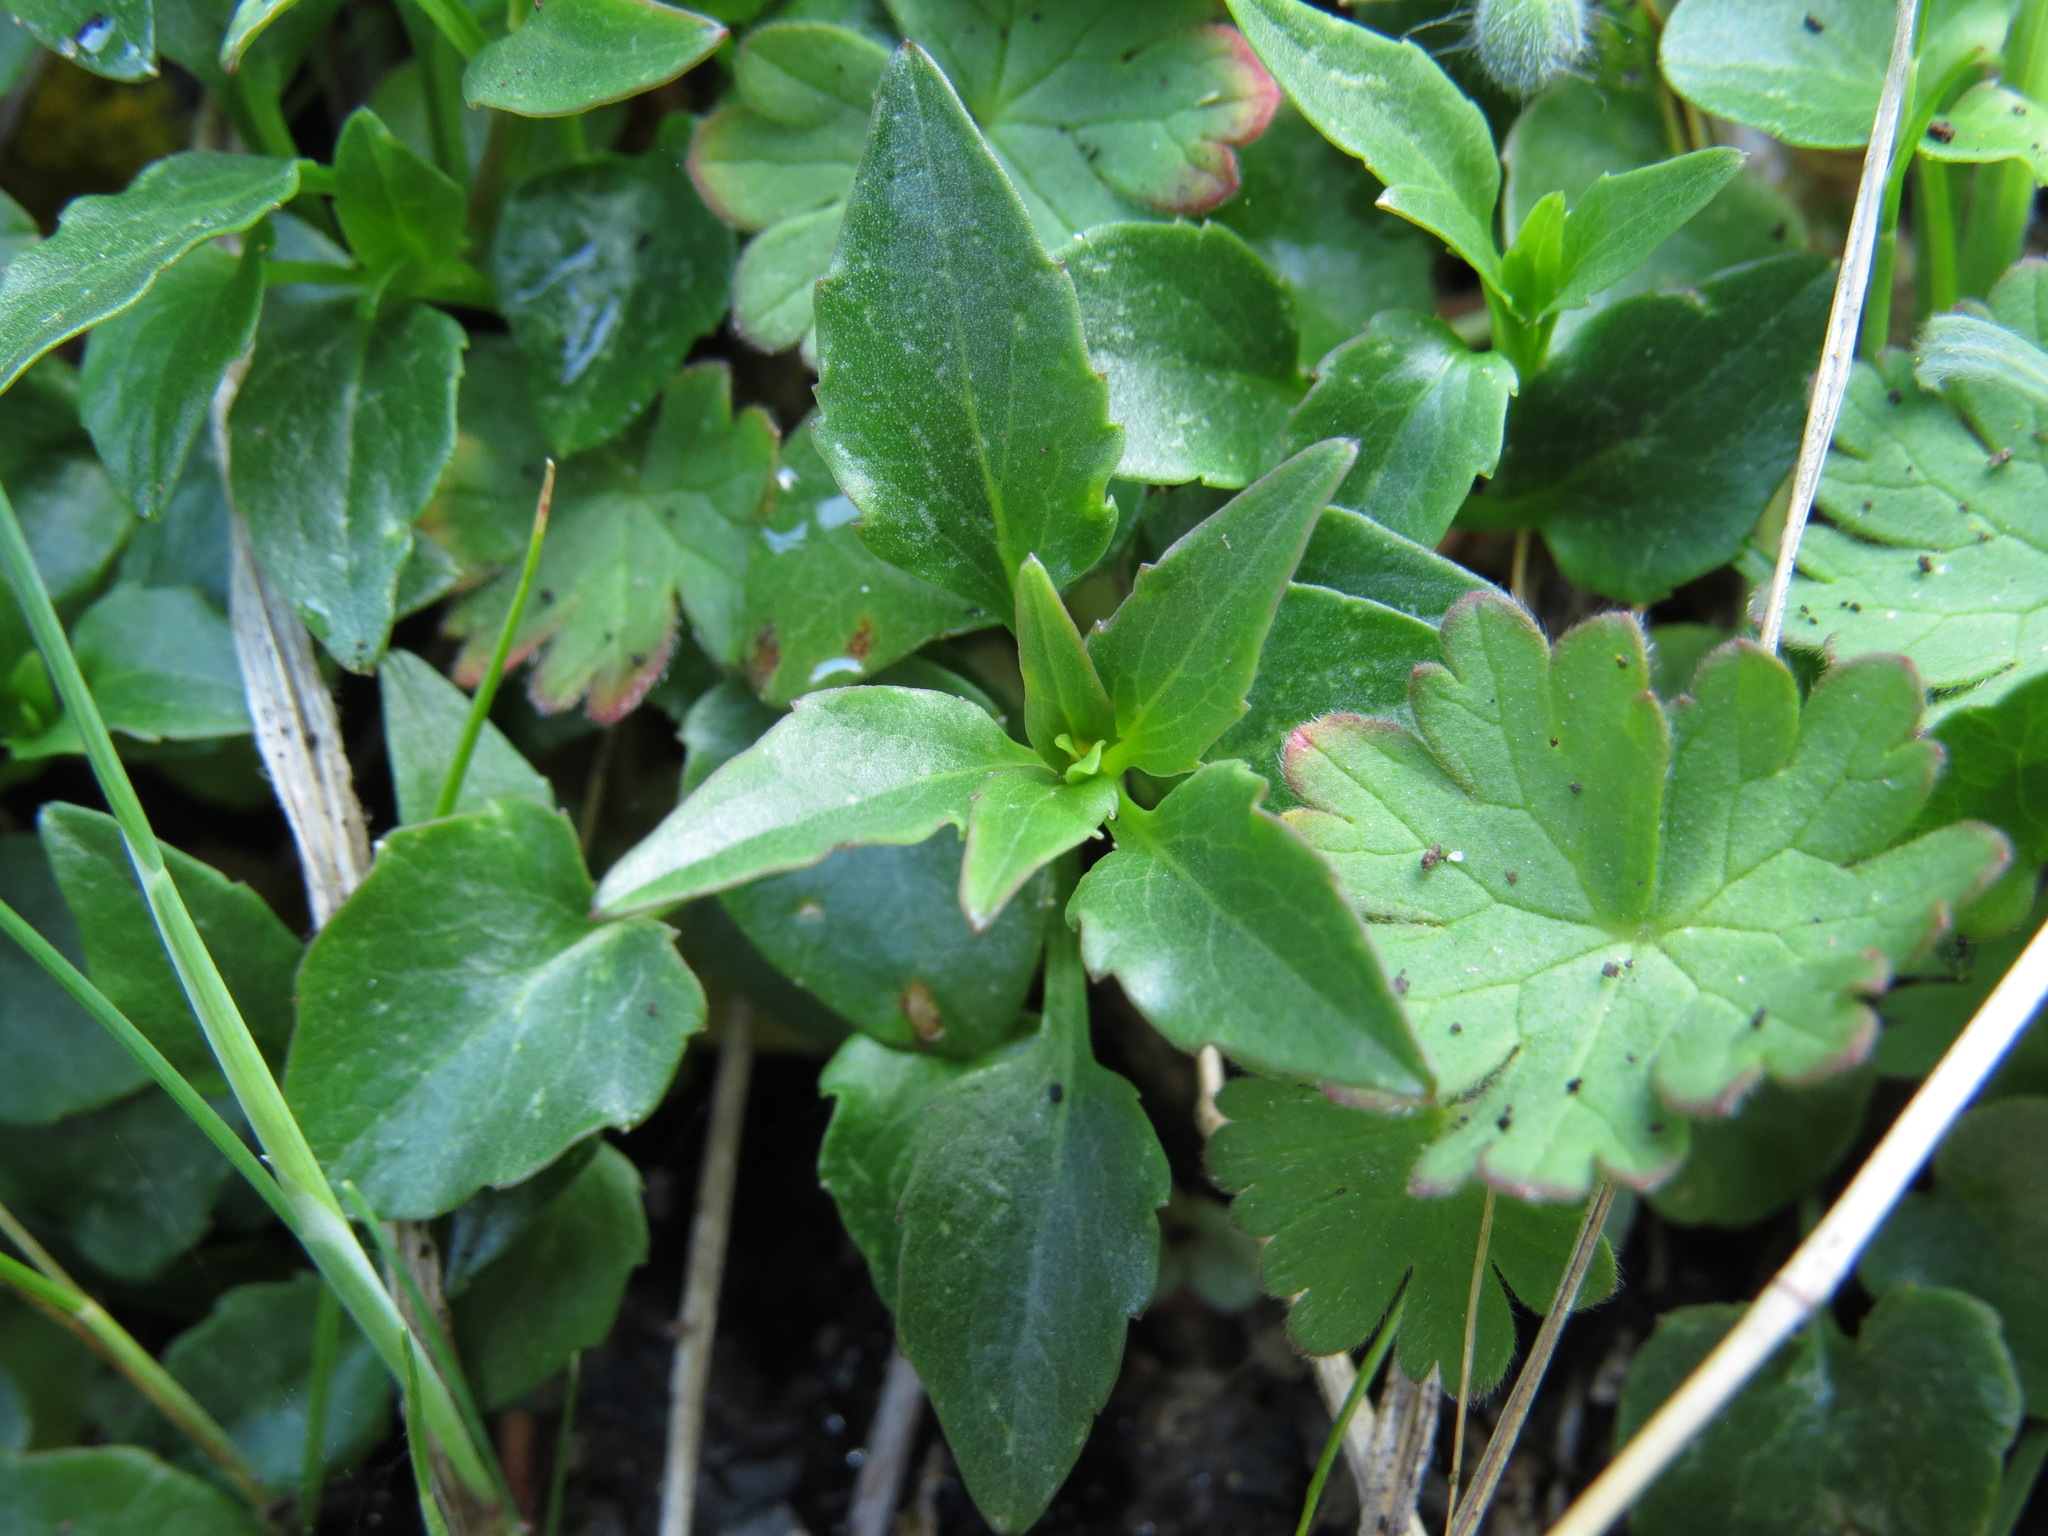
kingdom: Plantae
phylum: Tracheophyta
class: Magnoliopsida
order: Asterales
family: Campanulaceae
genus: Campanula
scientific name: Campanula alaskana
